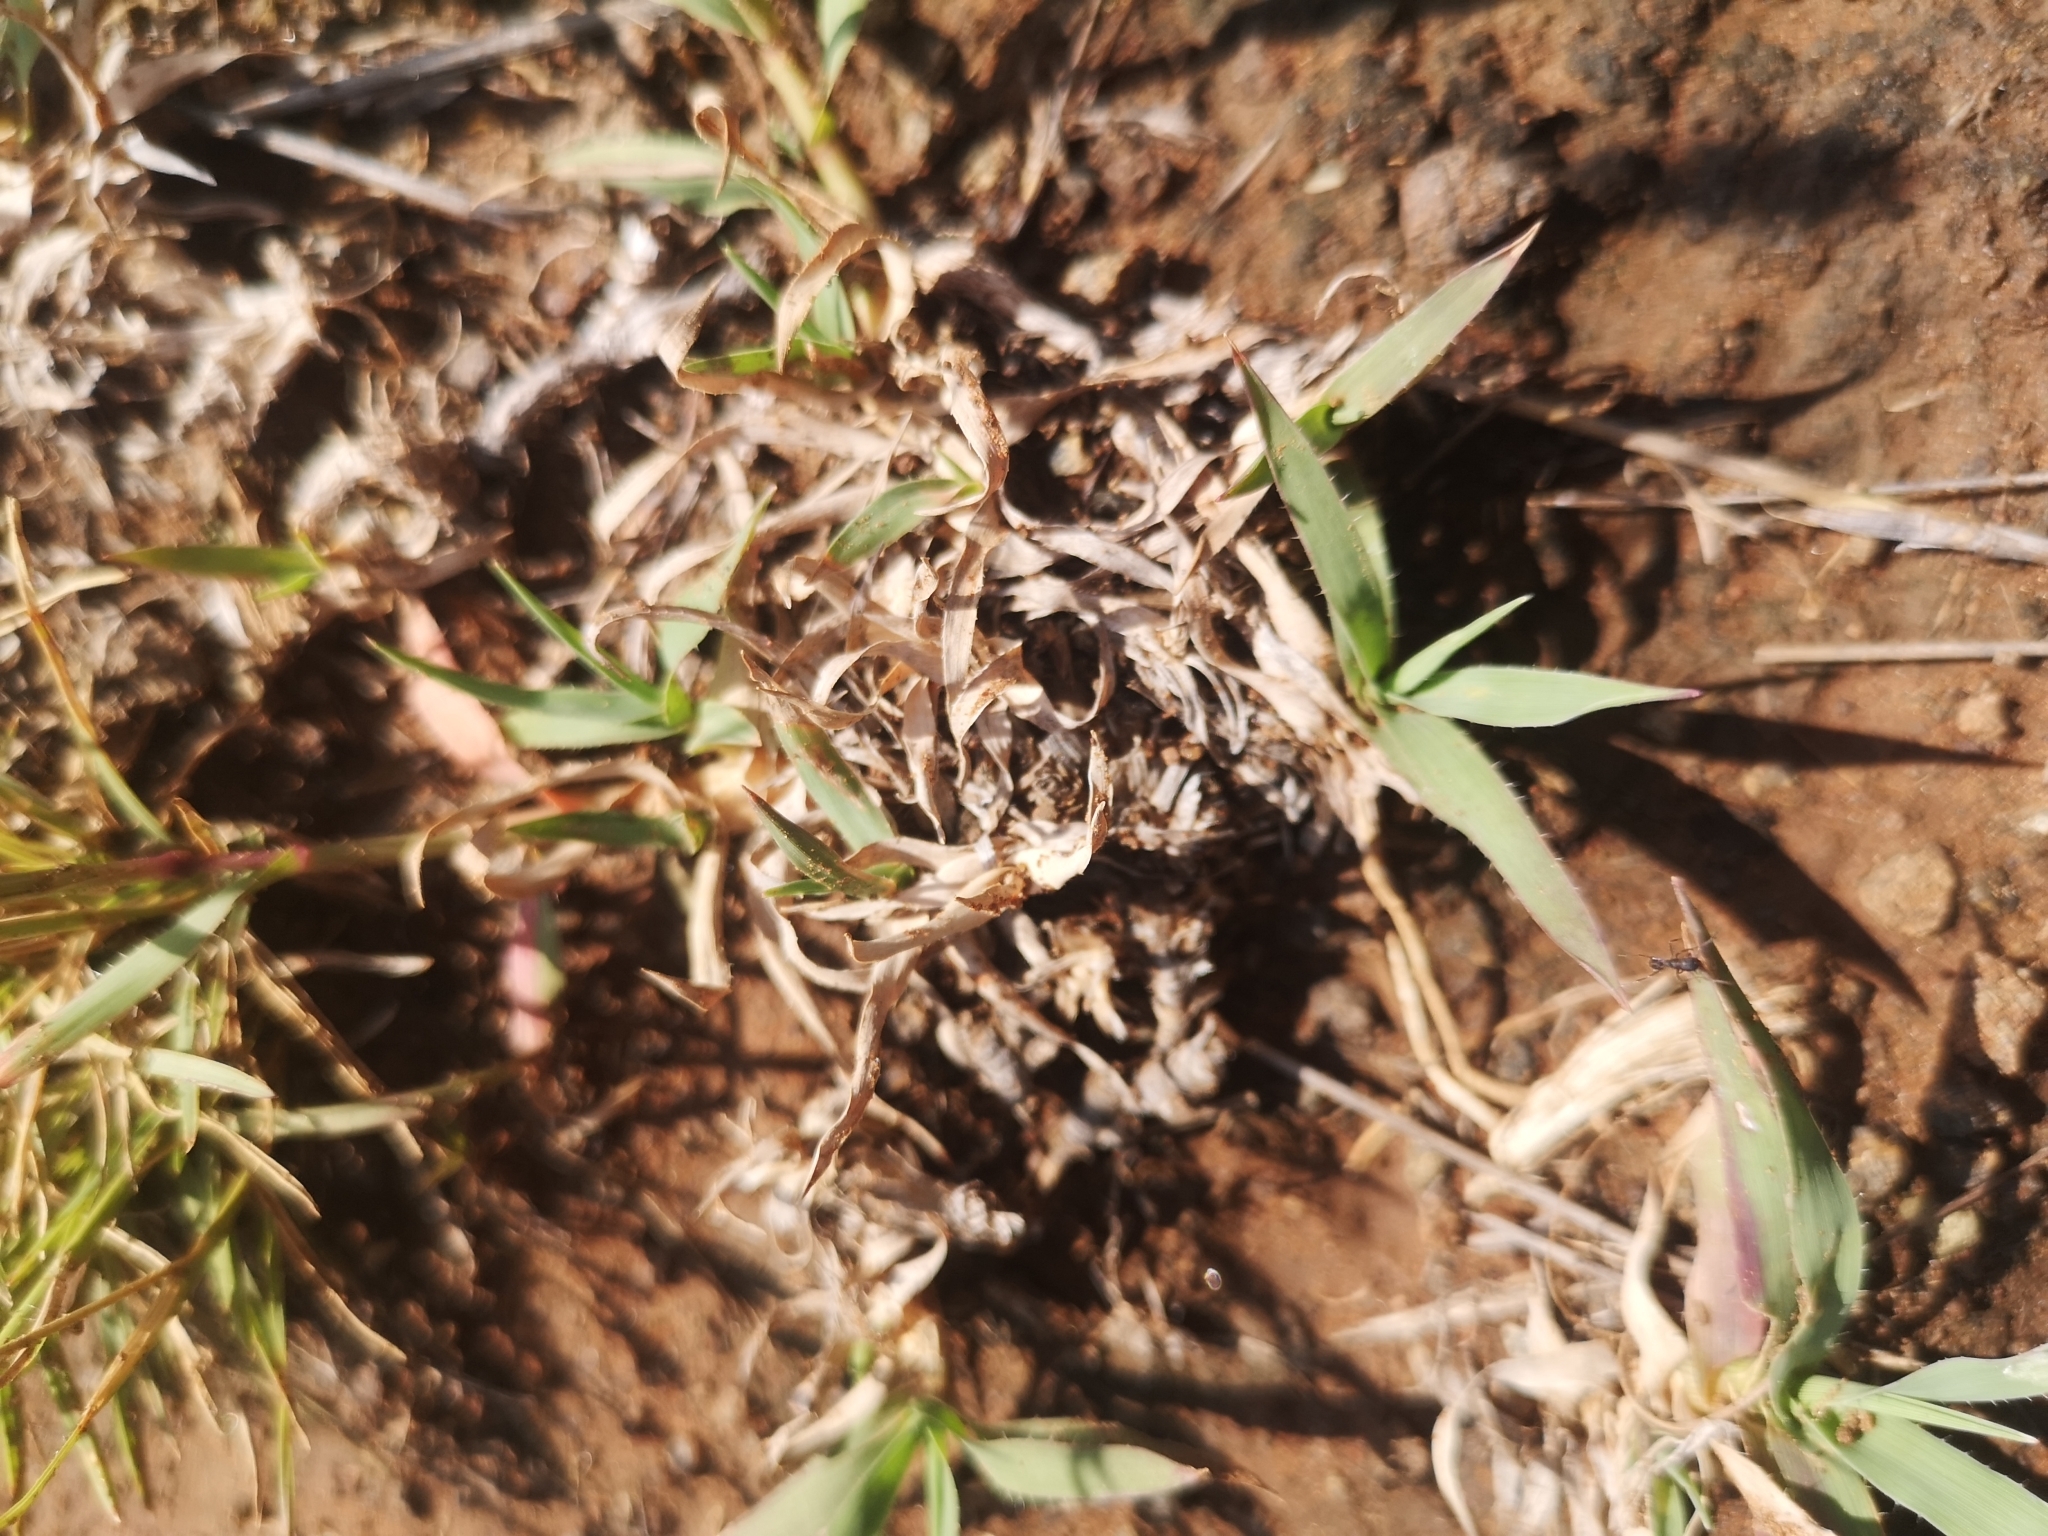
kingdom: Plantae
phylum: Tracheophyta
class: Liliopsida
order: Poales
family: Poaceae
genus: Tragus
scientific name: Tragus koelerioides
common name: Creeping carrot-seed grass
